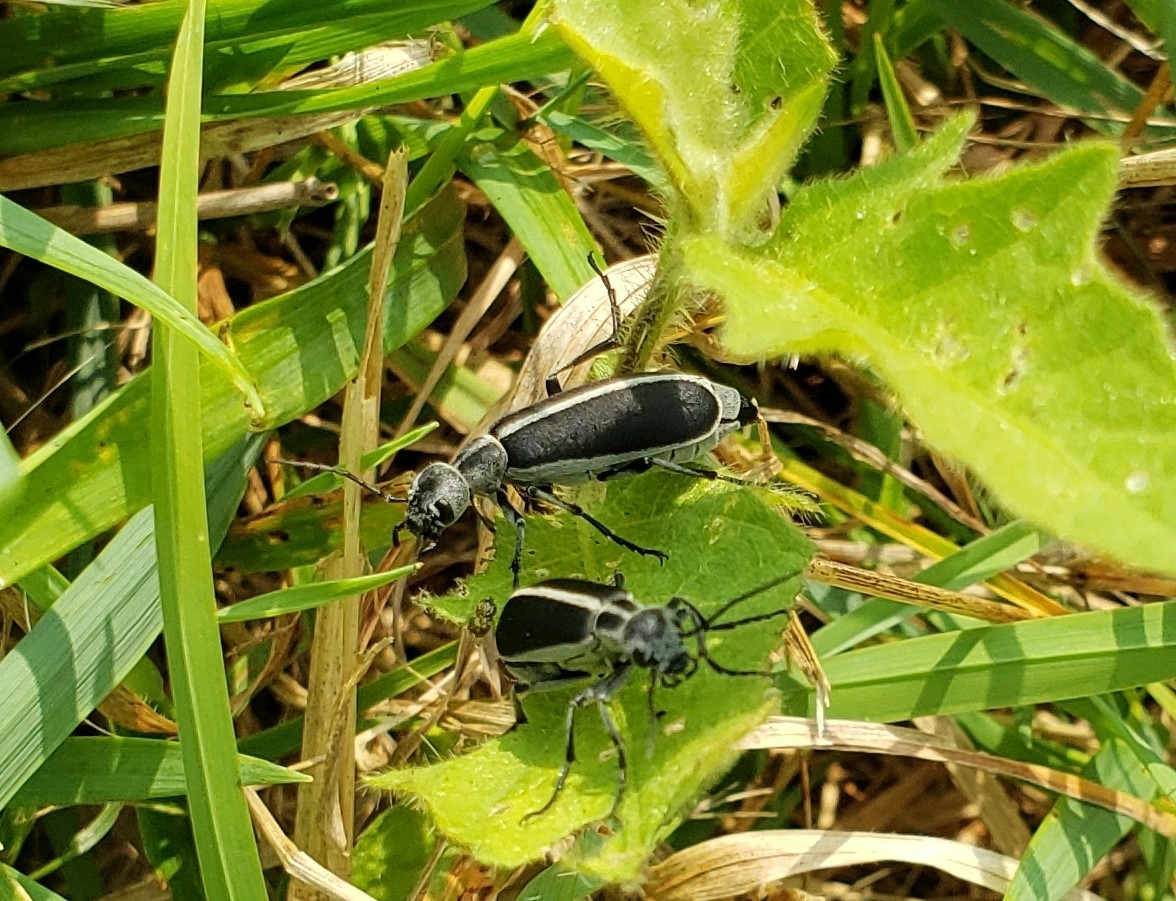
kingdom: Animalia
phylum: Arthropoda
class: Insecta
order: Coleoptera
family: Meloidae
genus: Epicauta
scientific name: Epicauta funebris
